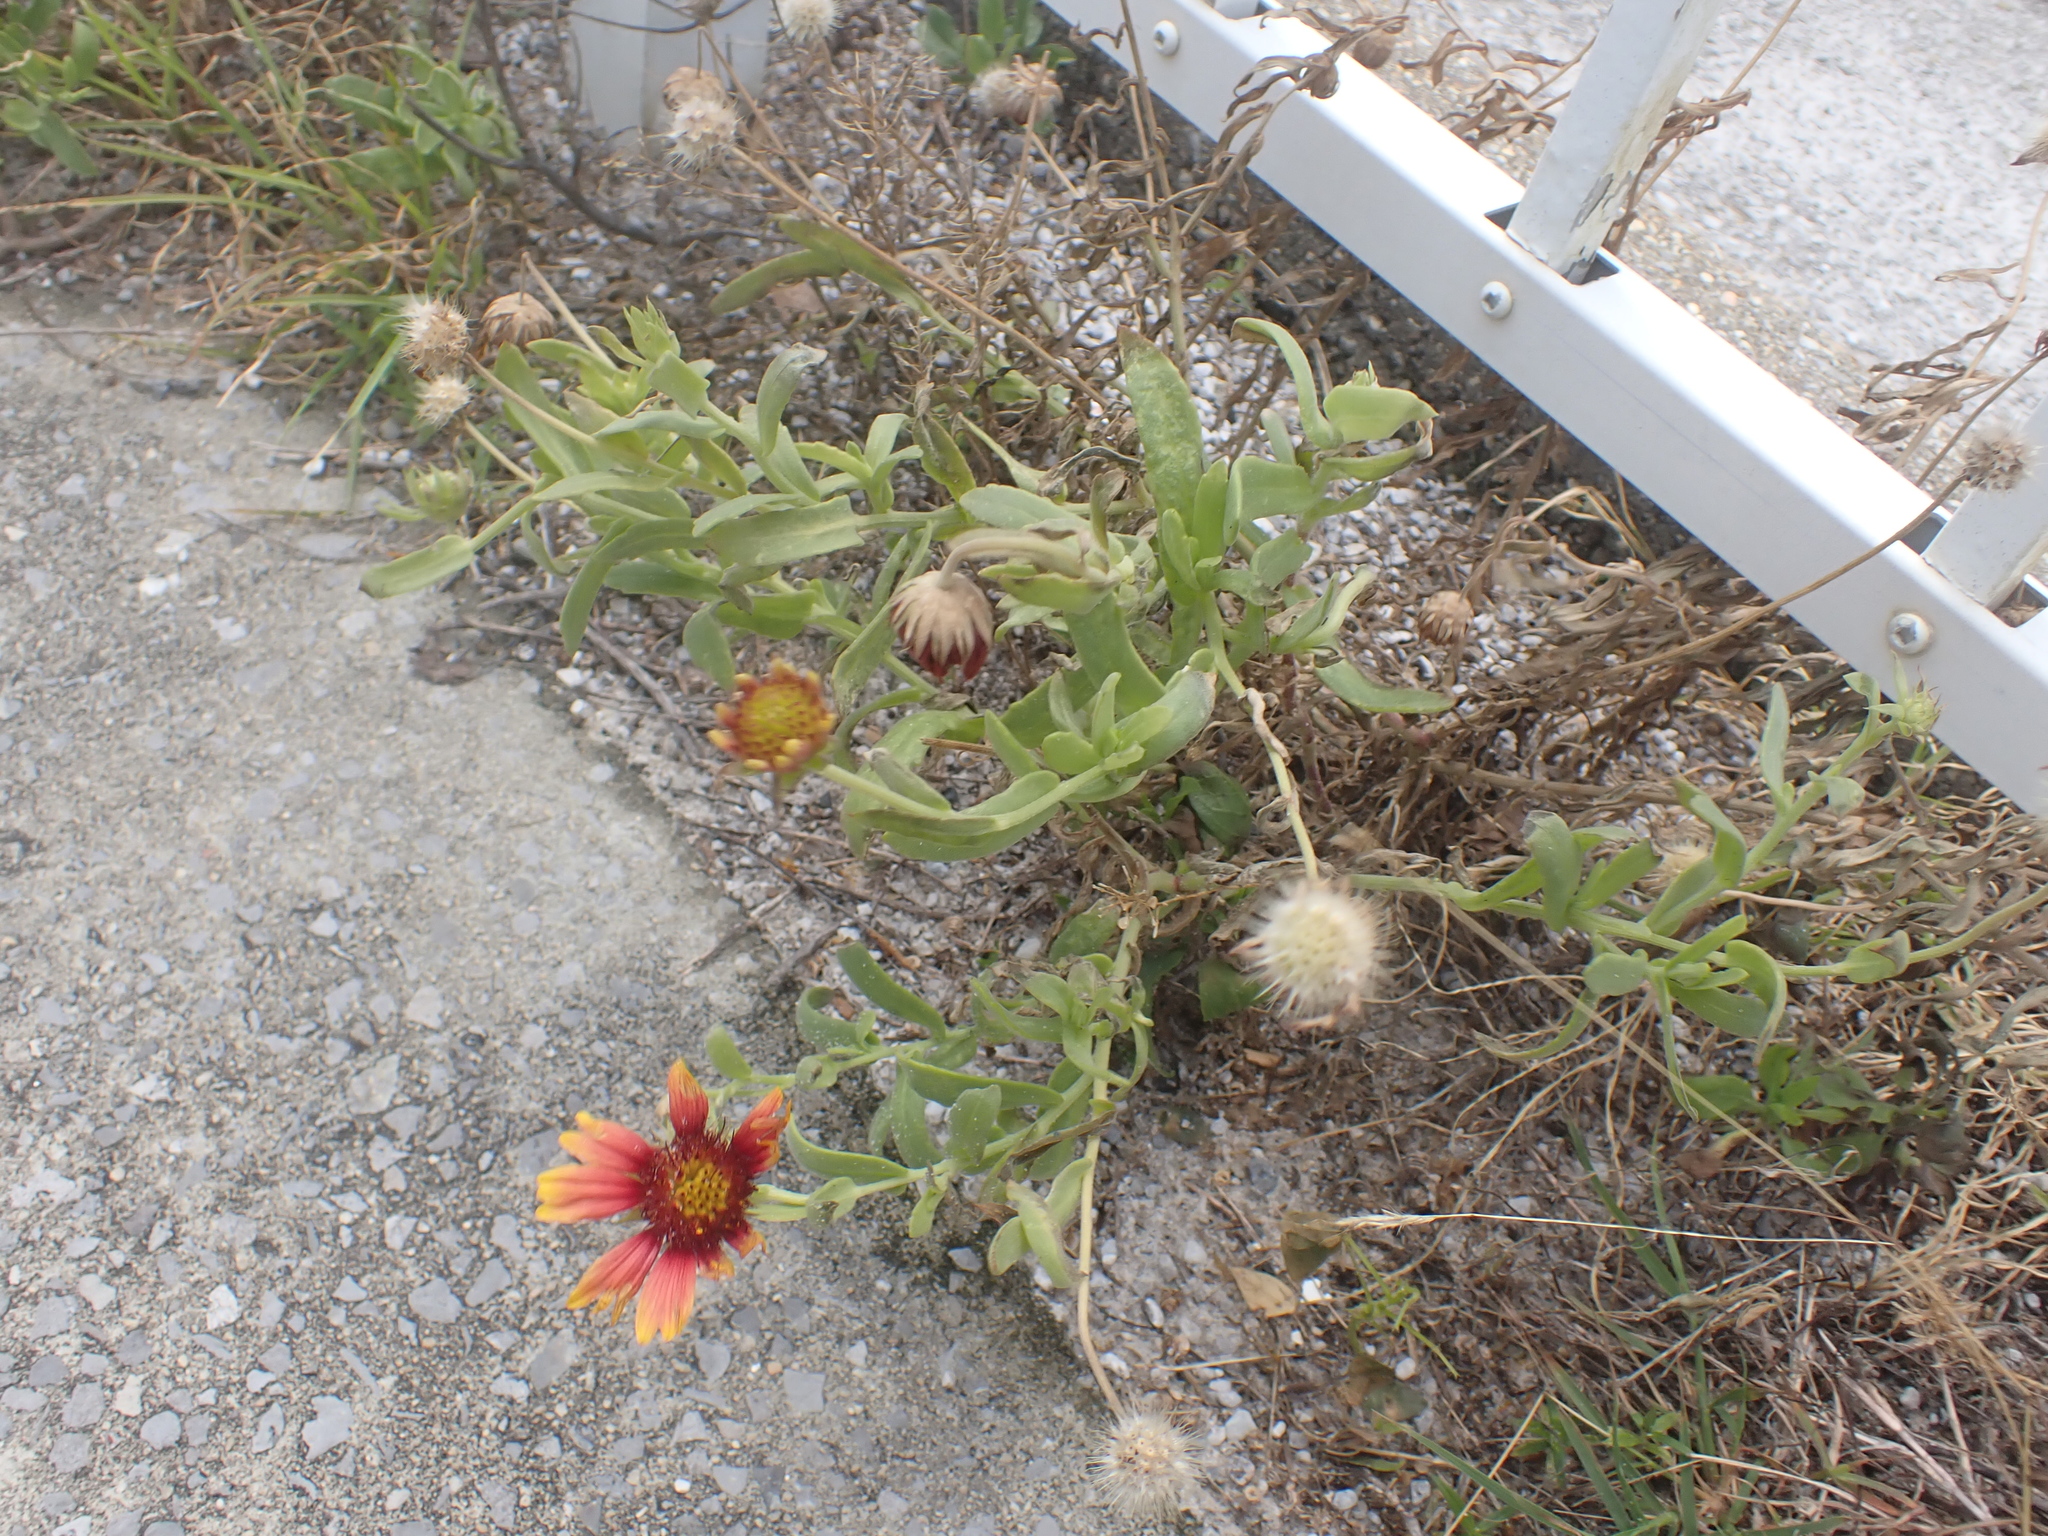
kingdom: Plantae
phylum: Tracheophyta
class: Magnoliopsida
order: Asterales
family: Asteraceae
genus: Gaillardia
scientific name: Gaillardia pulchella
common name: Firewheel
